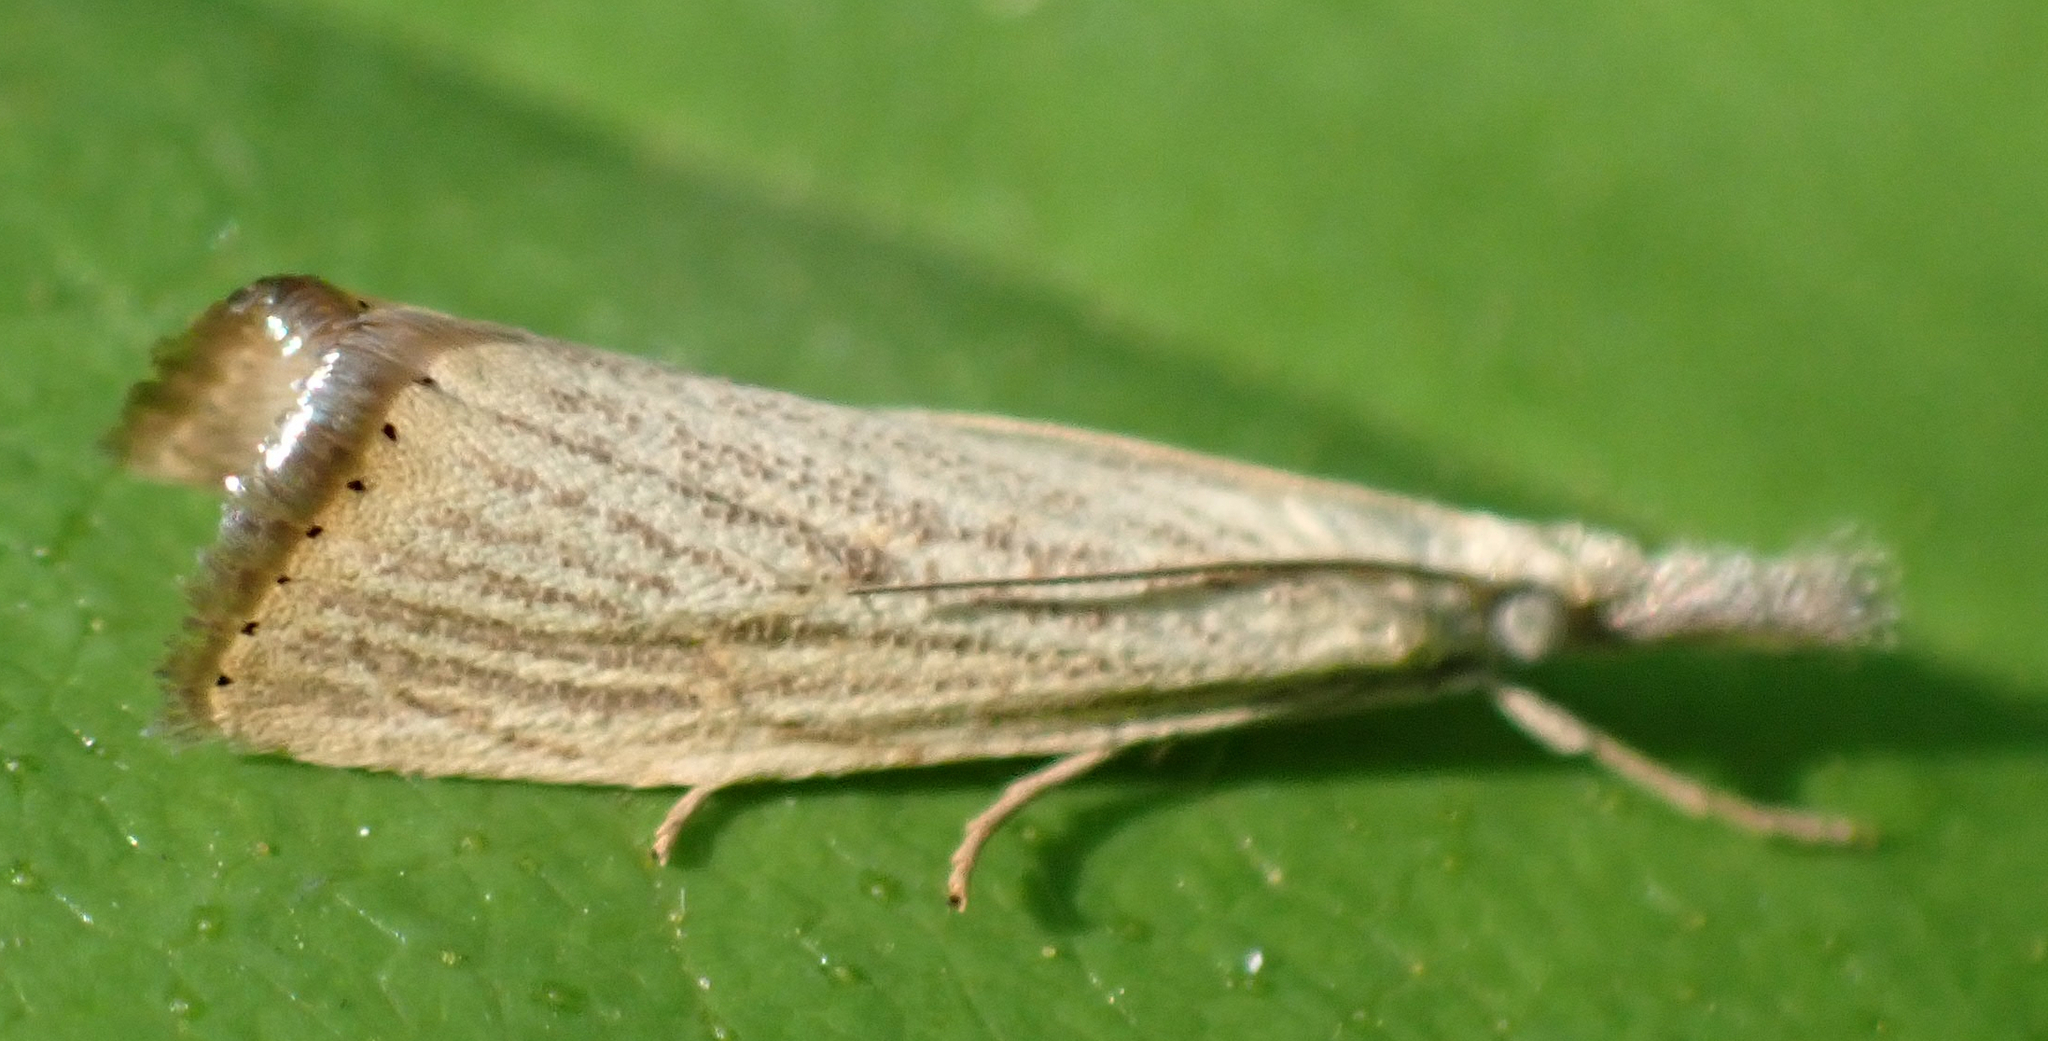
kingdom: Animalia
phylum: Arthropoda
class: Insecta
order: Lepidoptera
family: Crambidae
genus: Agriphila
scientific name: Agriphila vulgivagellus
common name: Vagabond crambus moth
